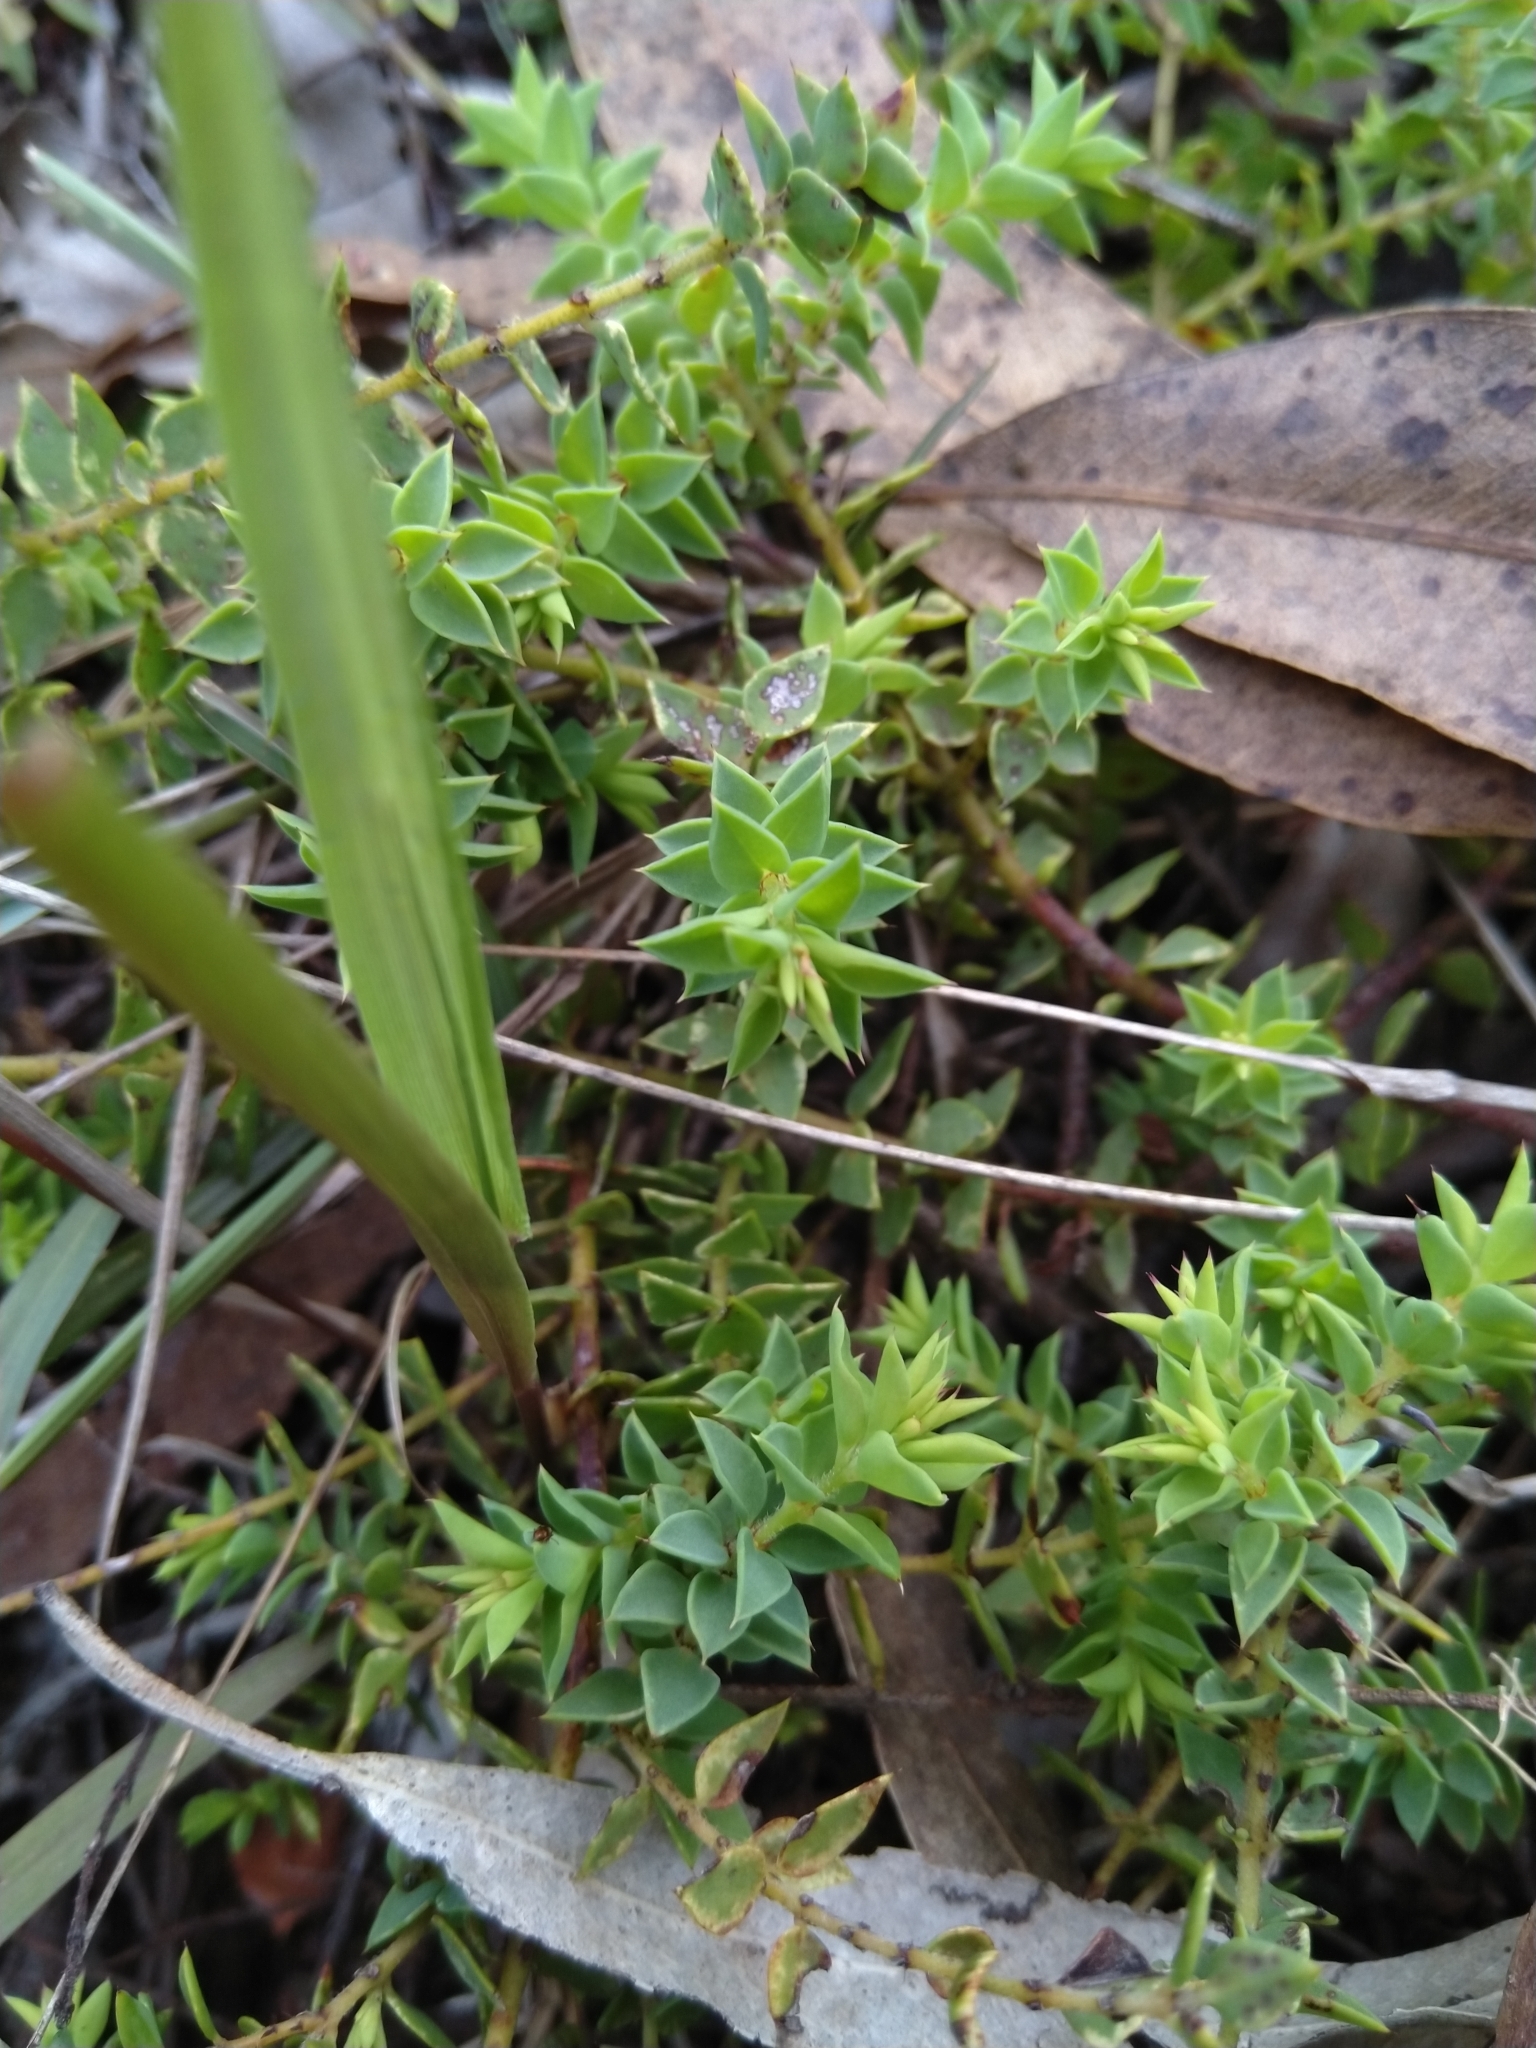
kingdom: Plantae
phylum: Tracheophyta
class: Magnoliopsida
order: Fabales
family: Fabaceae
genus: Pultenaea
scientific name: Pultenaea spinosa
